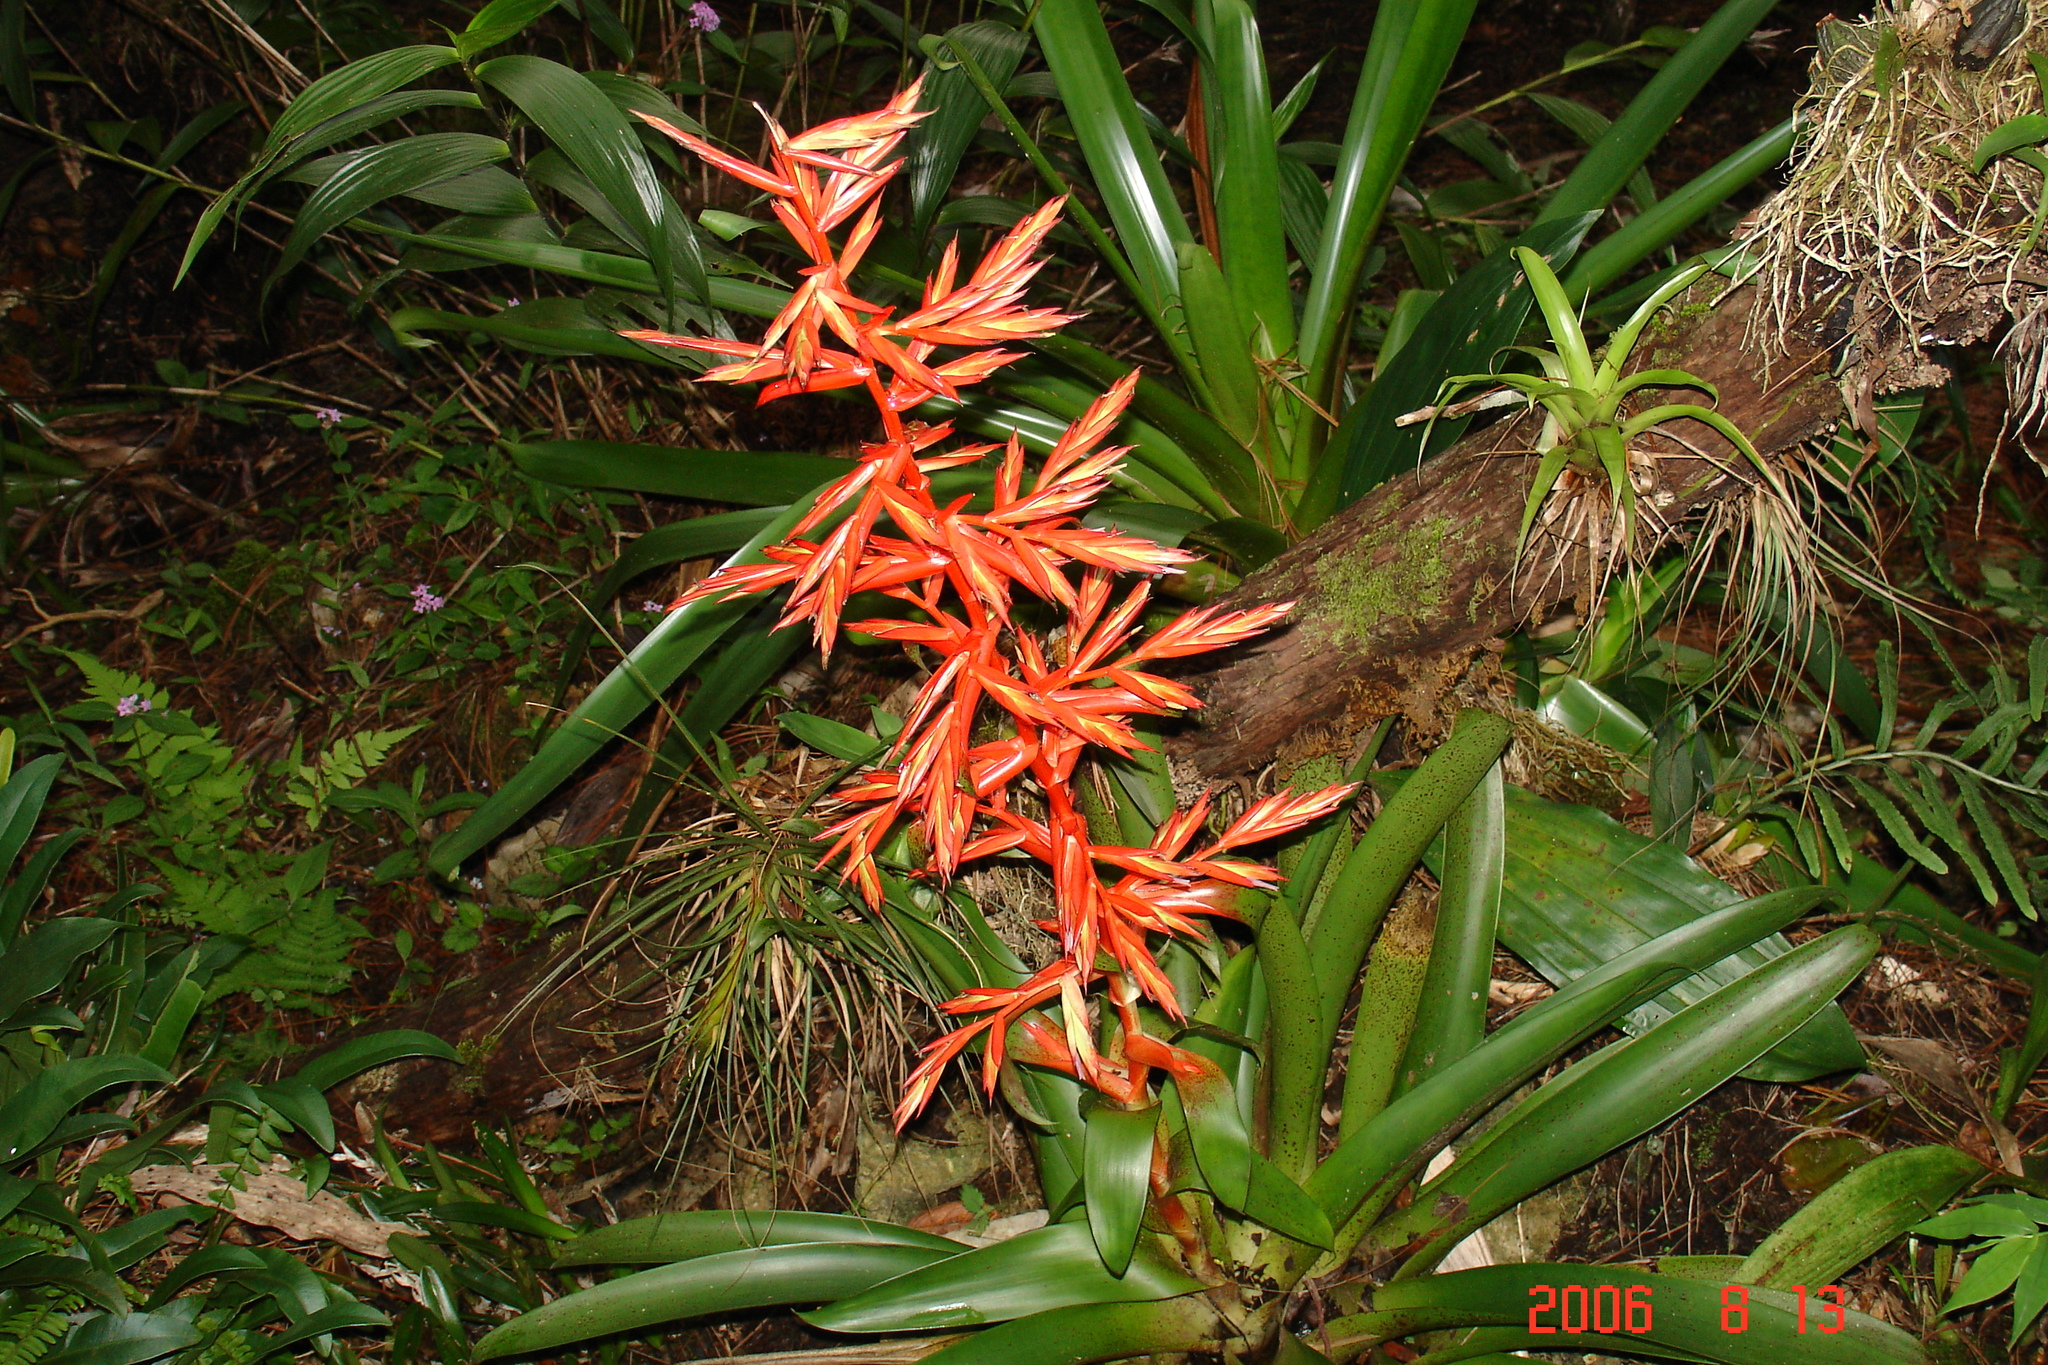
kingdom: Plantae
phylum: Tracheophyta
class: Liliopsida
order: Poales
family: Bromeliaceae
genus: Tillandsia
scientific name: Tillandsia guatemalensis
